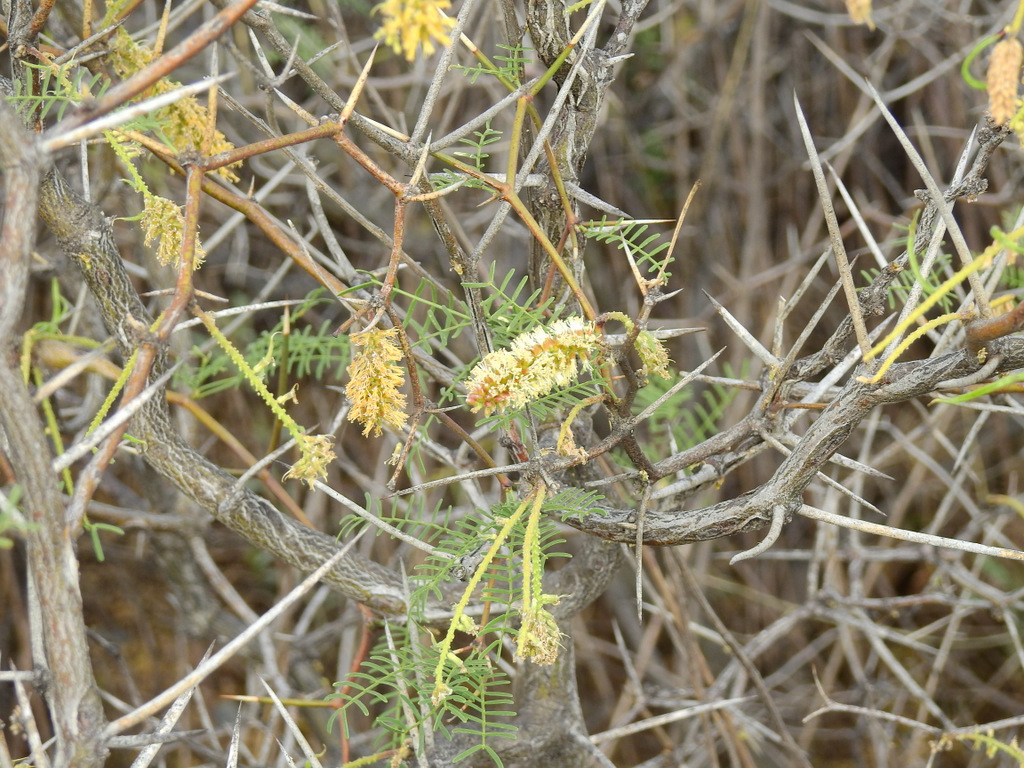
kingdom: Plantae
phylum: Tracheophyta
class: Magnoliopsida
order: Fabales
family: Fabaceae
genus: Prosopis
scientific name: Prosopis flexuosa
